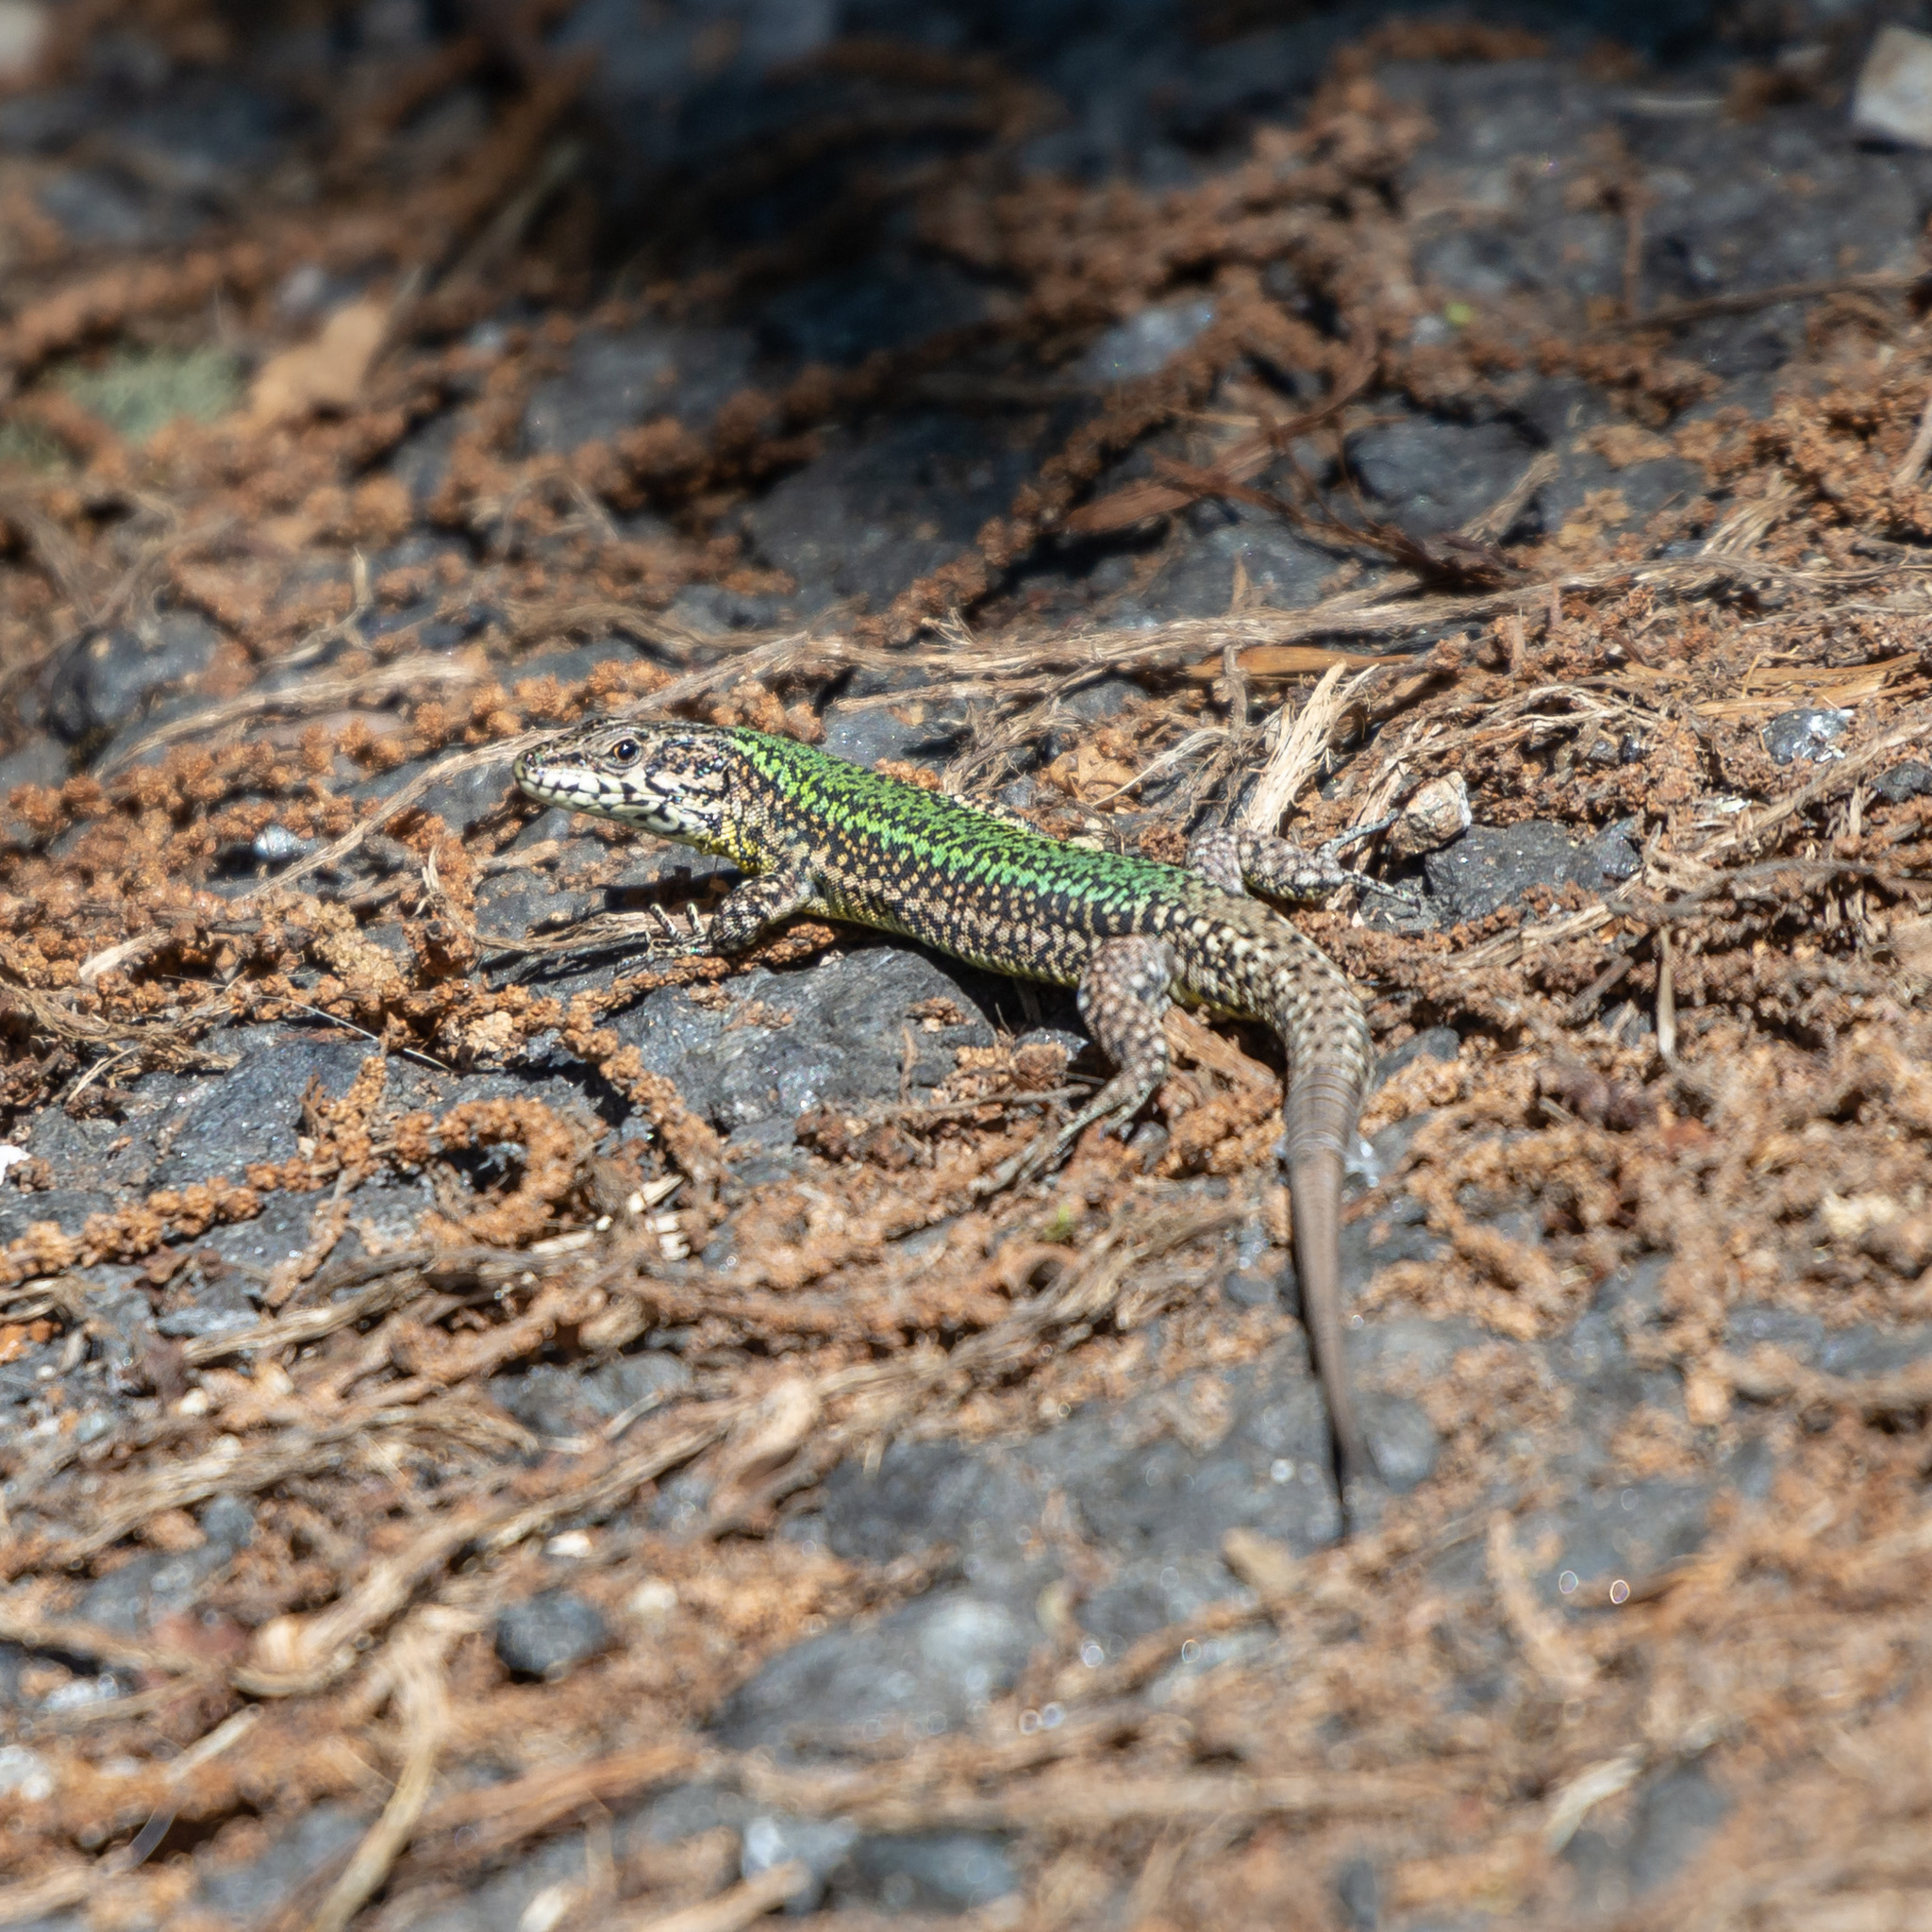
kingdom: Animalia
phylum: Chordata
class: Squamata
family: Lacertidae
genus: Podarcis
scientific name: Podarcis bocagei
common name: Bocage's wall lizard
